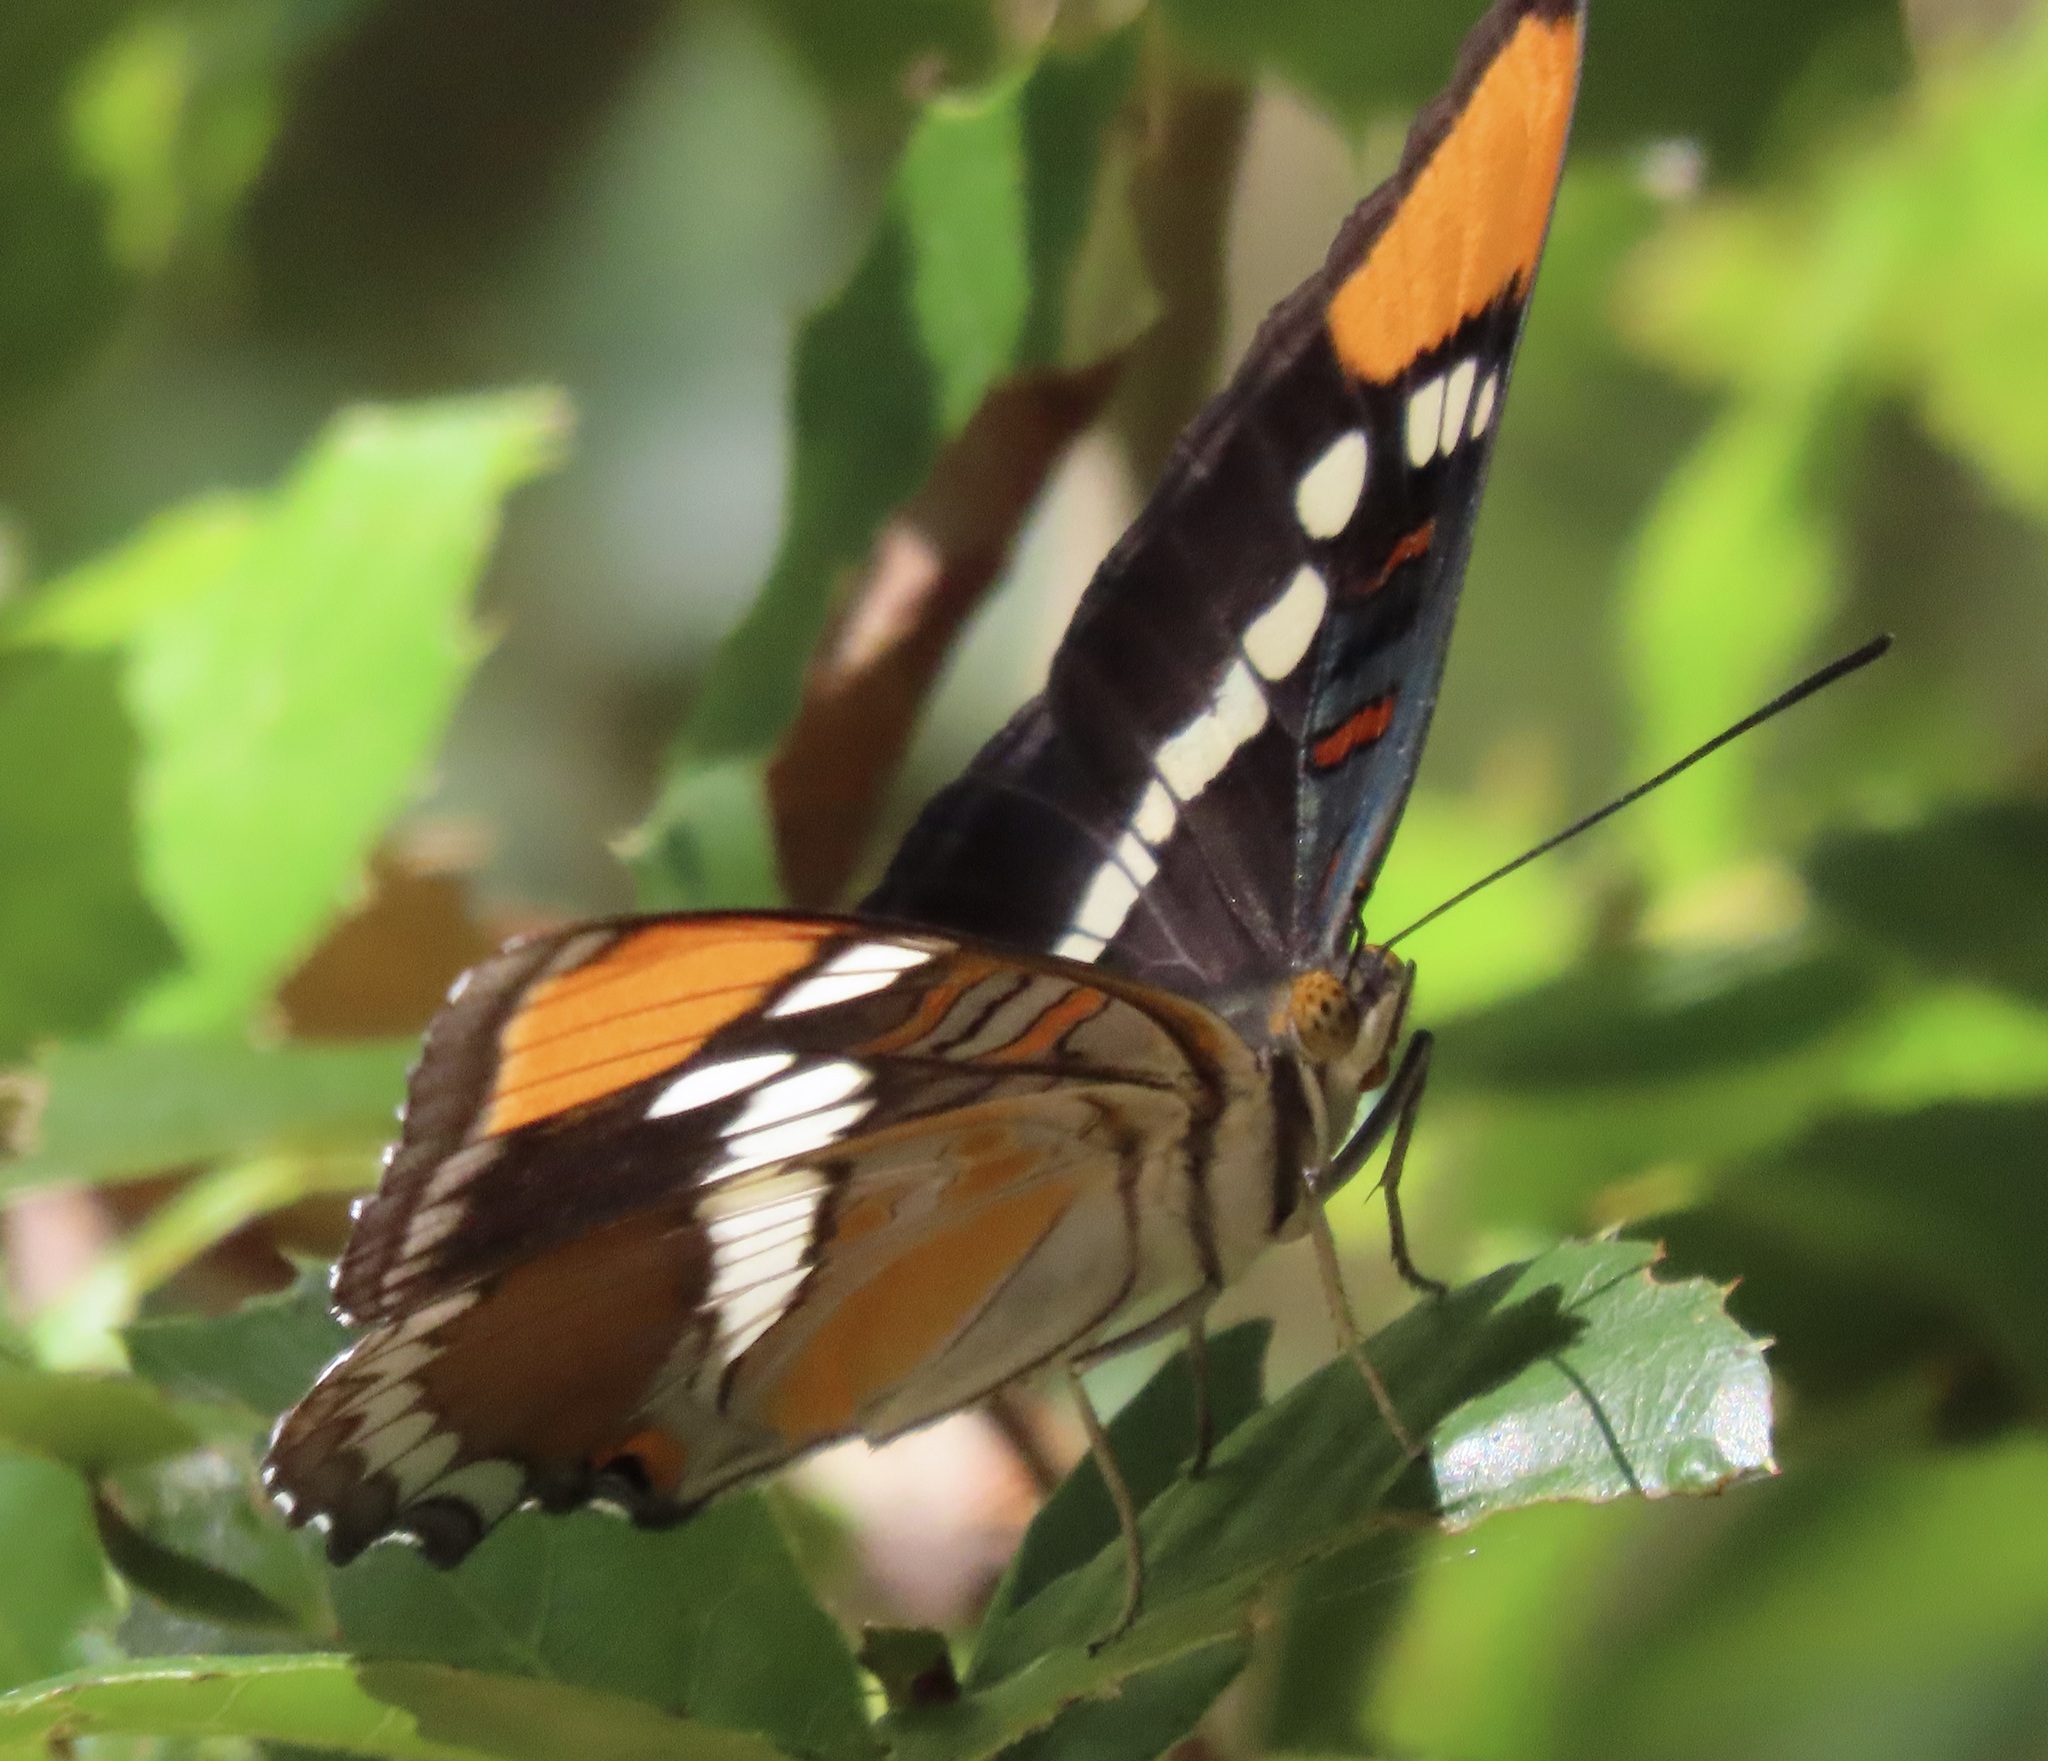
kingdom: Animalia
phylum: Arthropoda
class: Insecta
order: Lepidoptera
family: Nymphalidae
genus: Limenitis
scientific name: Limenitis bredowii
